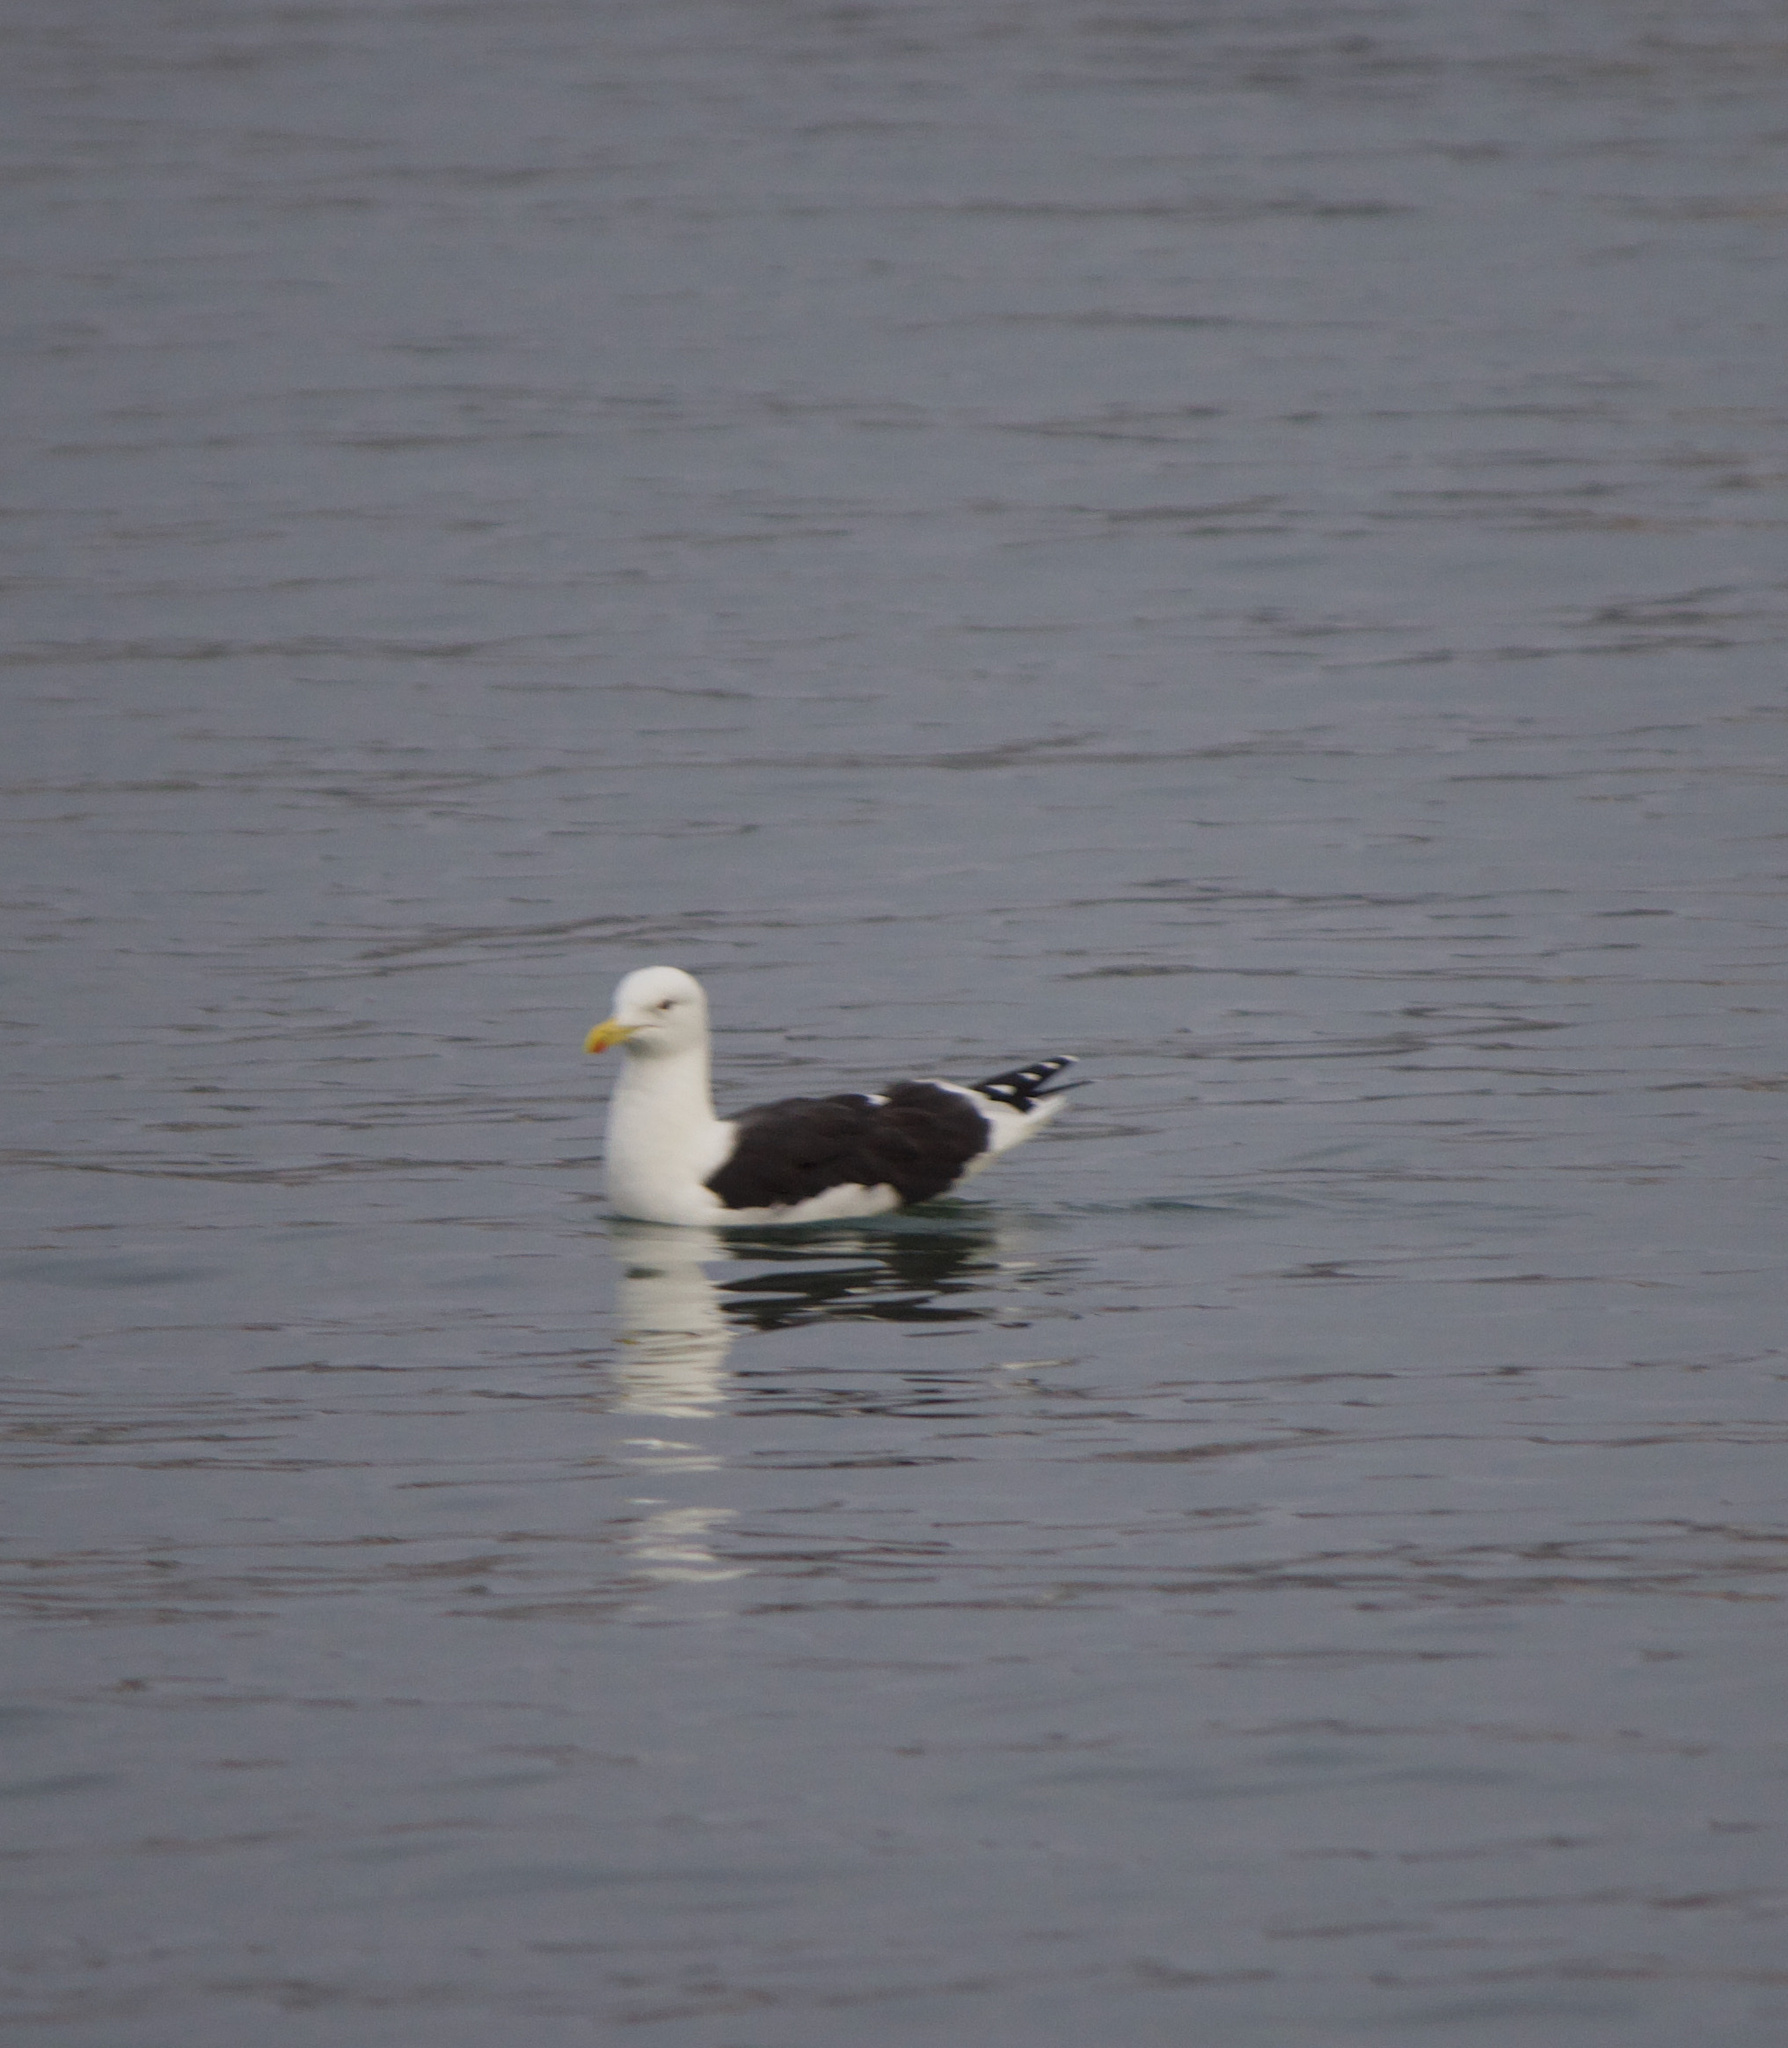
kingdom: Animalia
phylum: Chordata
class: Aves
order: Charadriiformes
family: Laridae
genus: Larus
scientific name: Larus dominicanus
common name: Kelp gull
